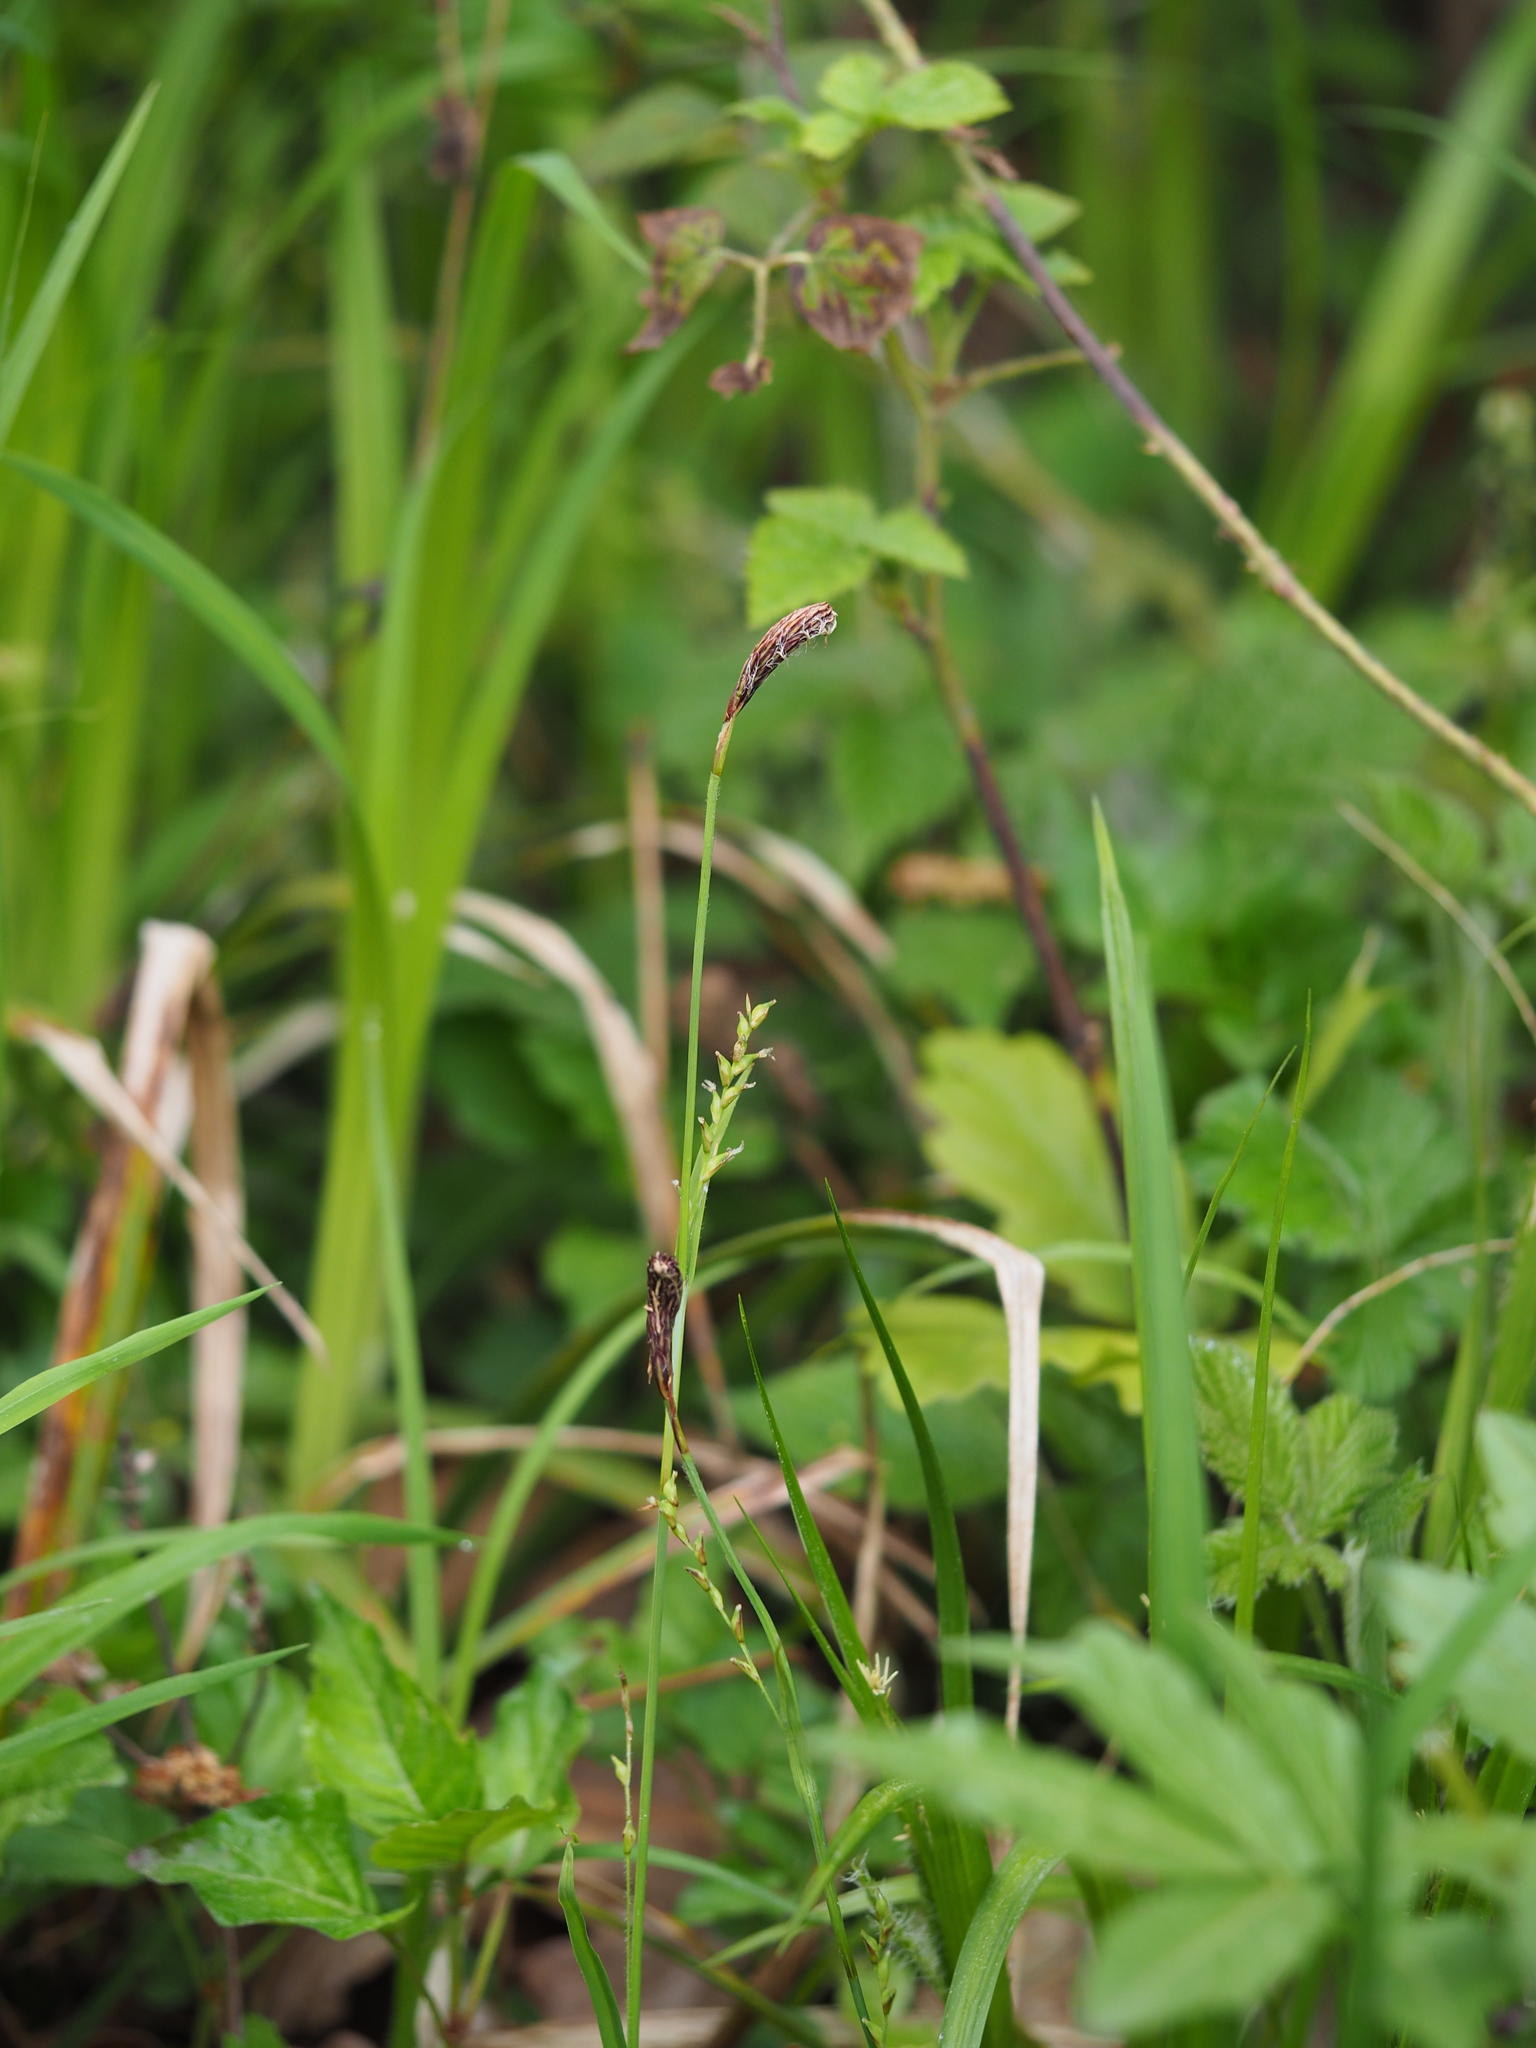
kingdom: Plantae
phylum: Tracheophyta
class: Liliopsida
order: Poales
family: Cyperaceae
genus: Carex
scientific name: Carex pilosa
